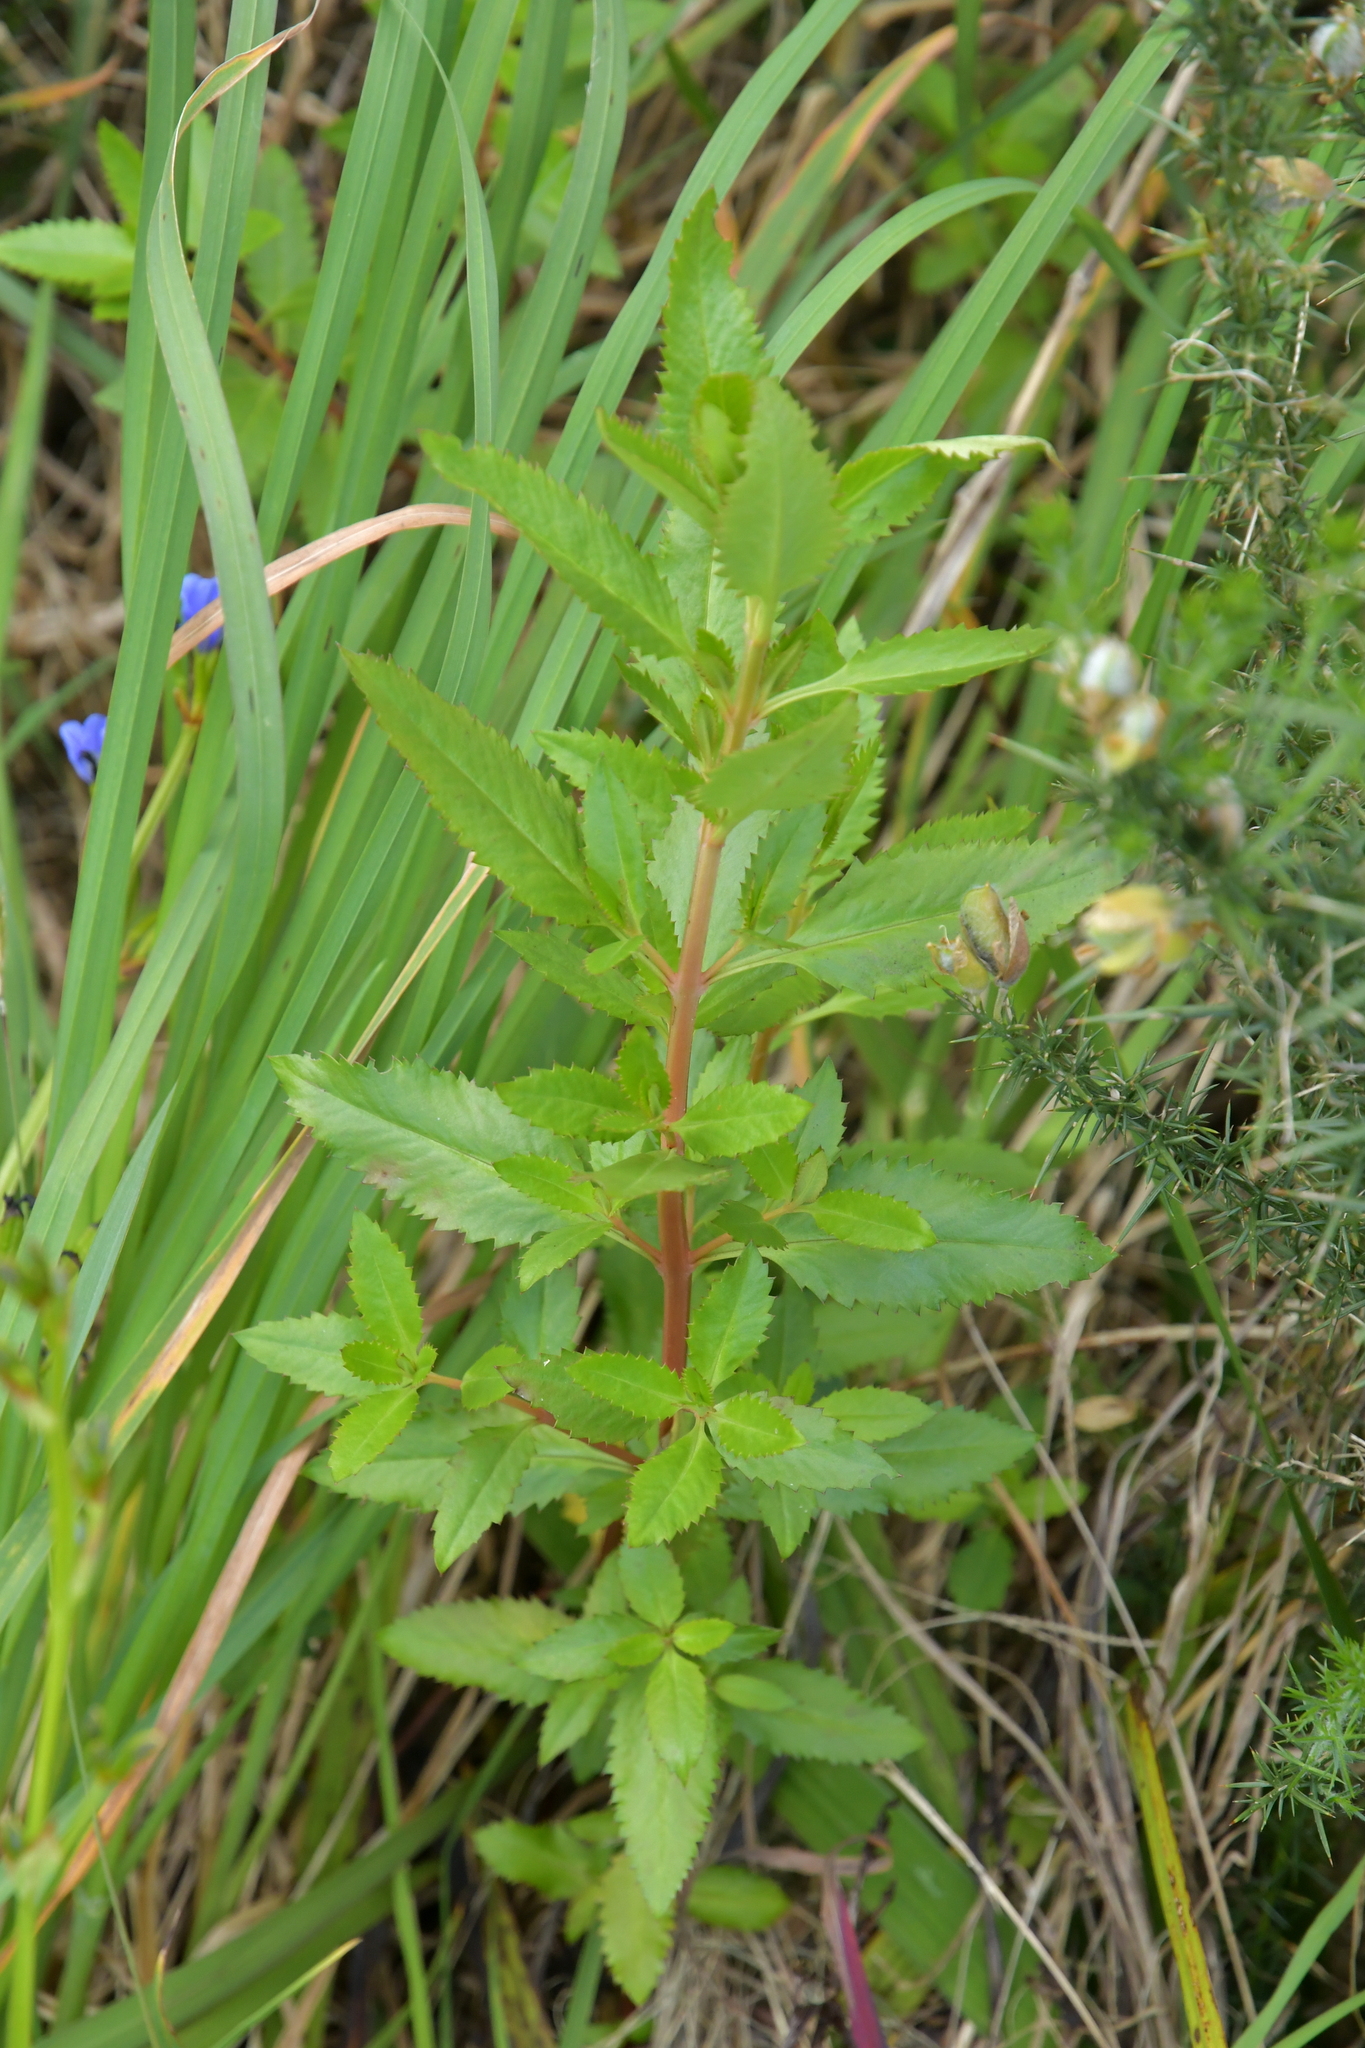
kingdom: Plantae
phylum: Tracheophyta
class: Magnoliopsida
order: Saxifragales
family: Haloragaceae
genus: Haloragis
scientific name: Haloragis erecta
